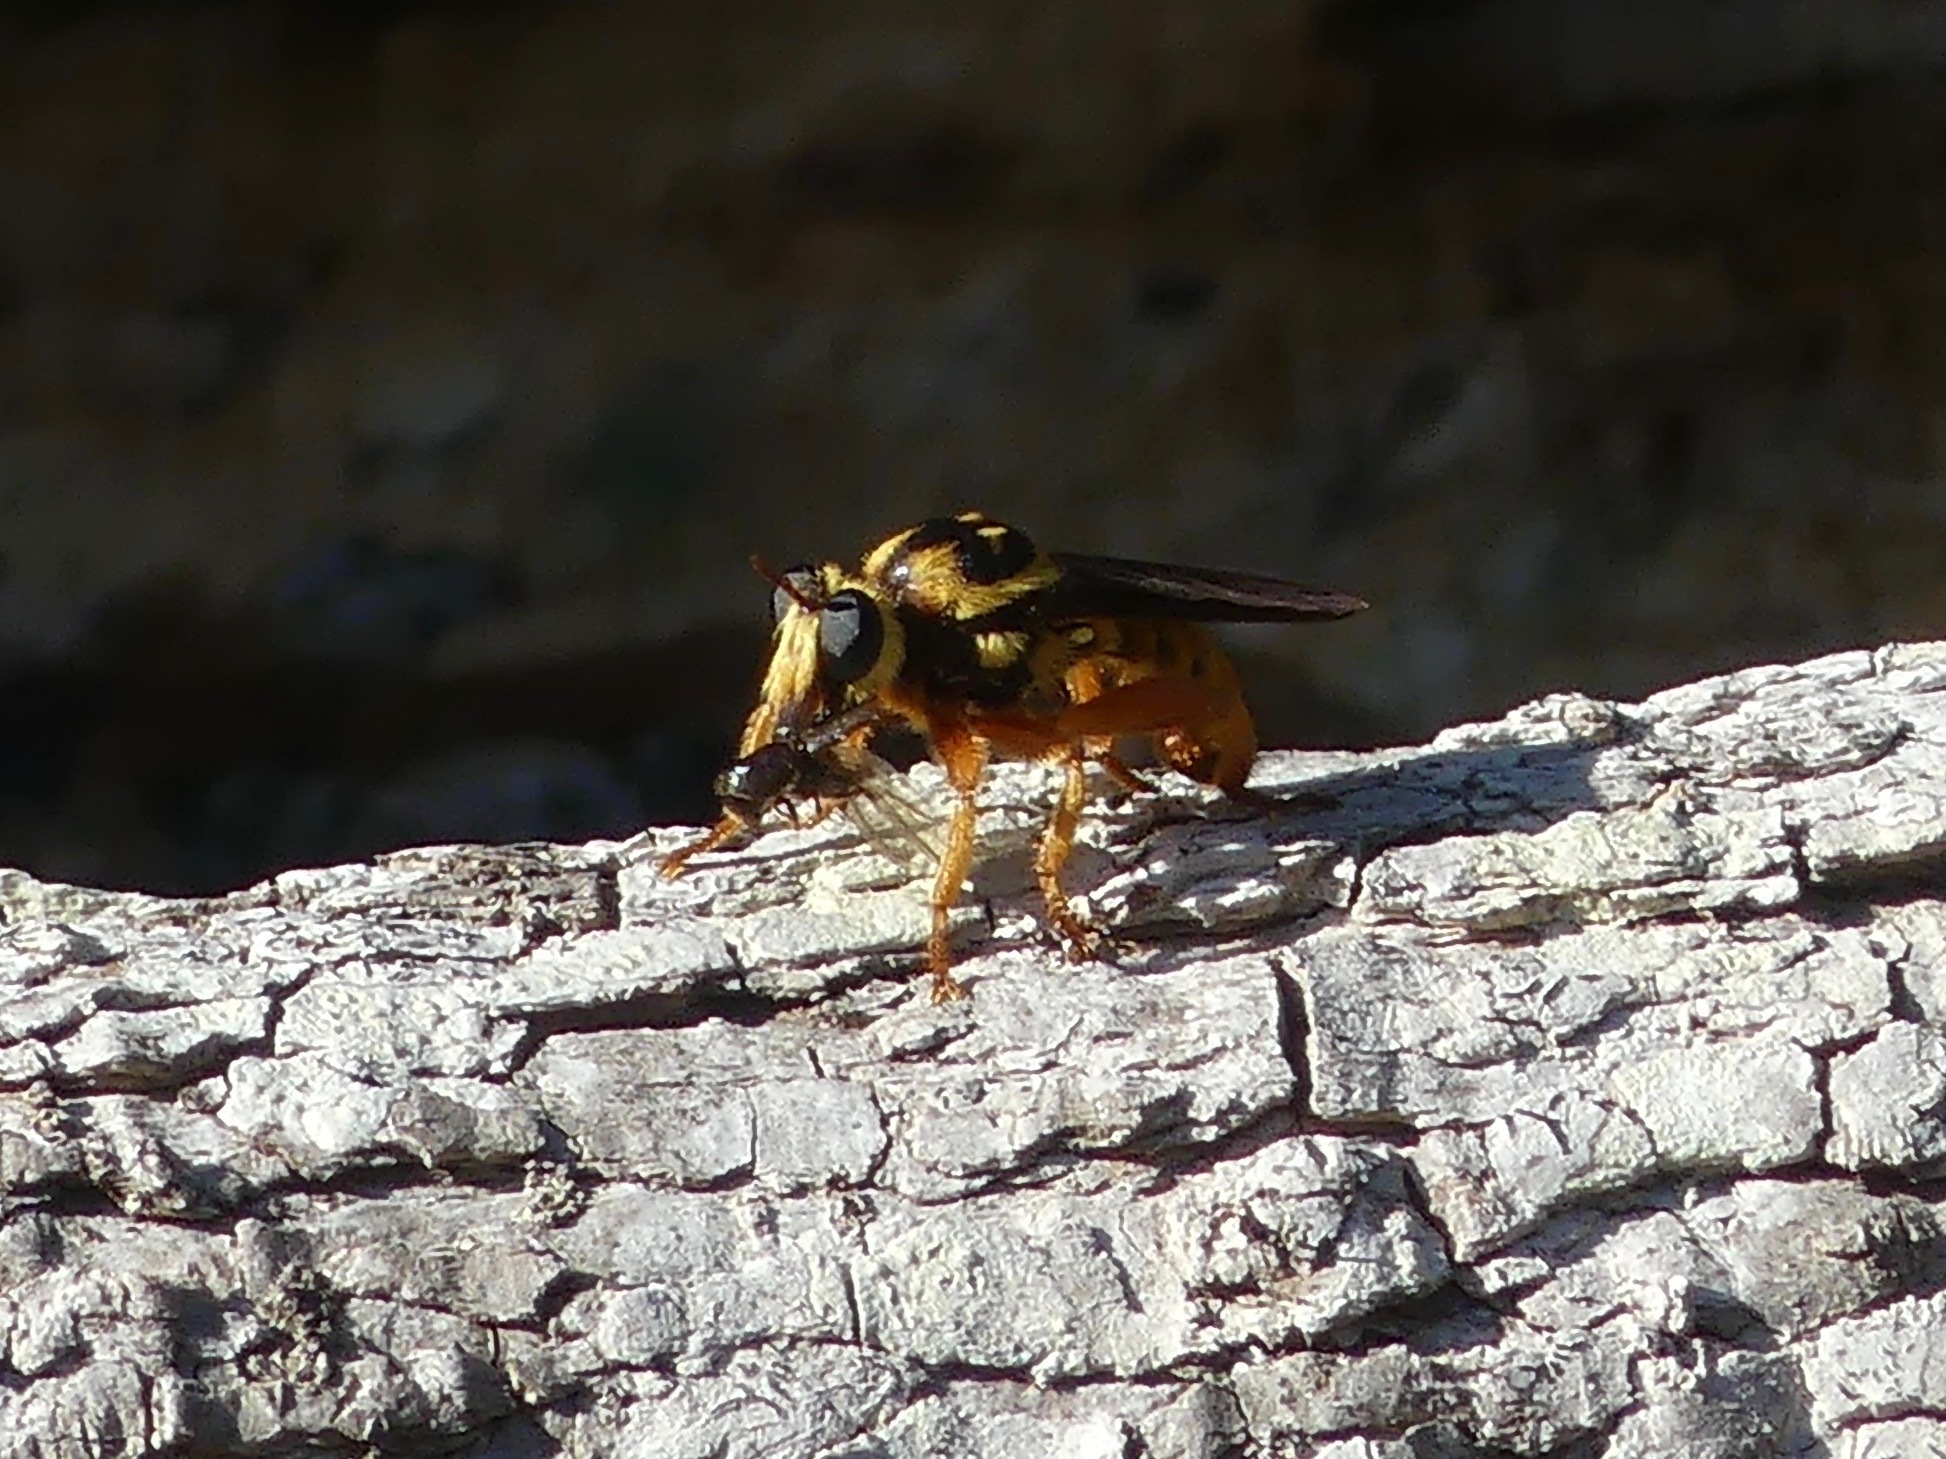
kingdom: Animalia
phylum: Arthropoda
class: Insecta
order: Diptera
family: Asilidae
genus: Laphria
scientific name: Laphria saffrana
